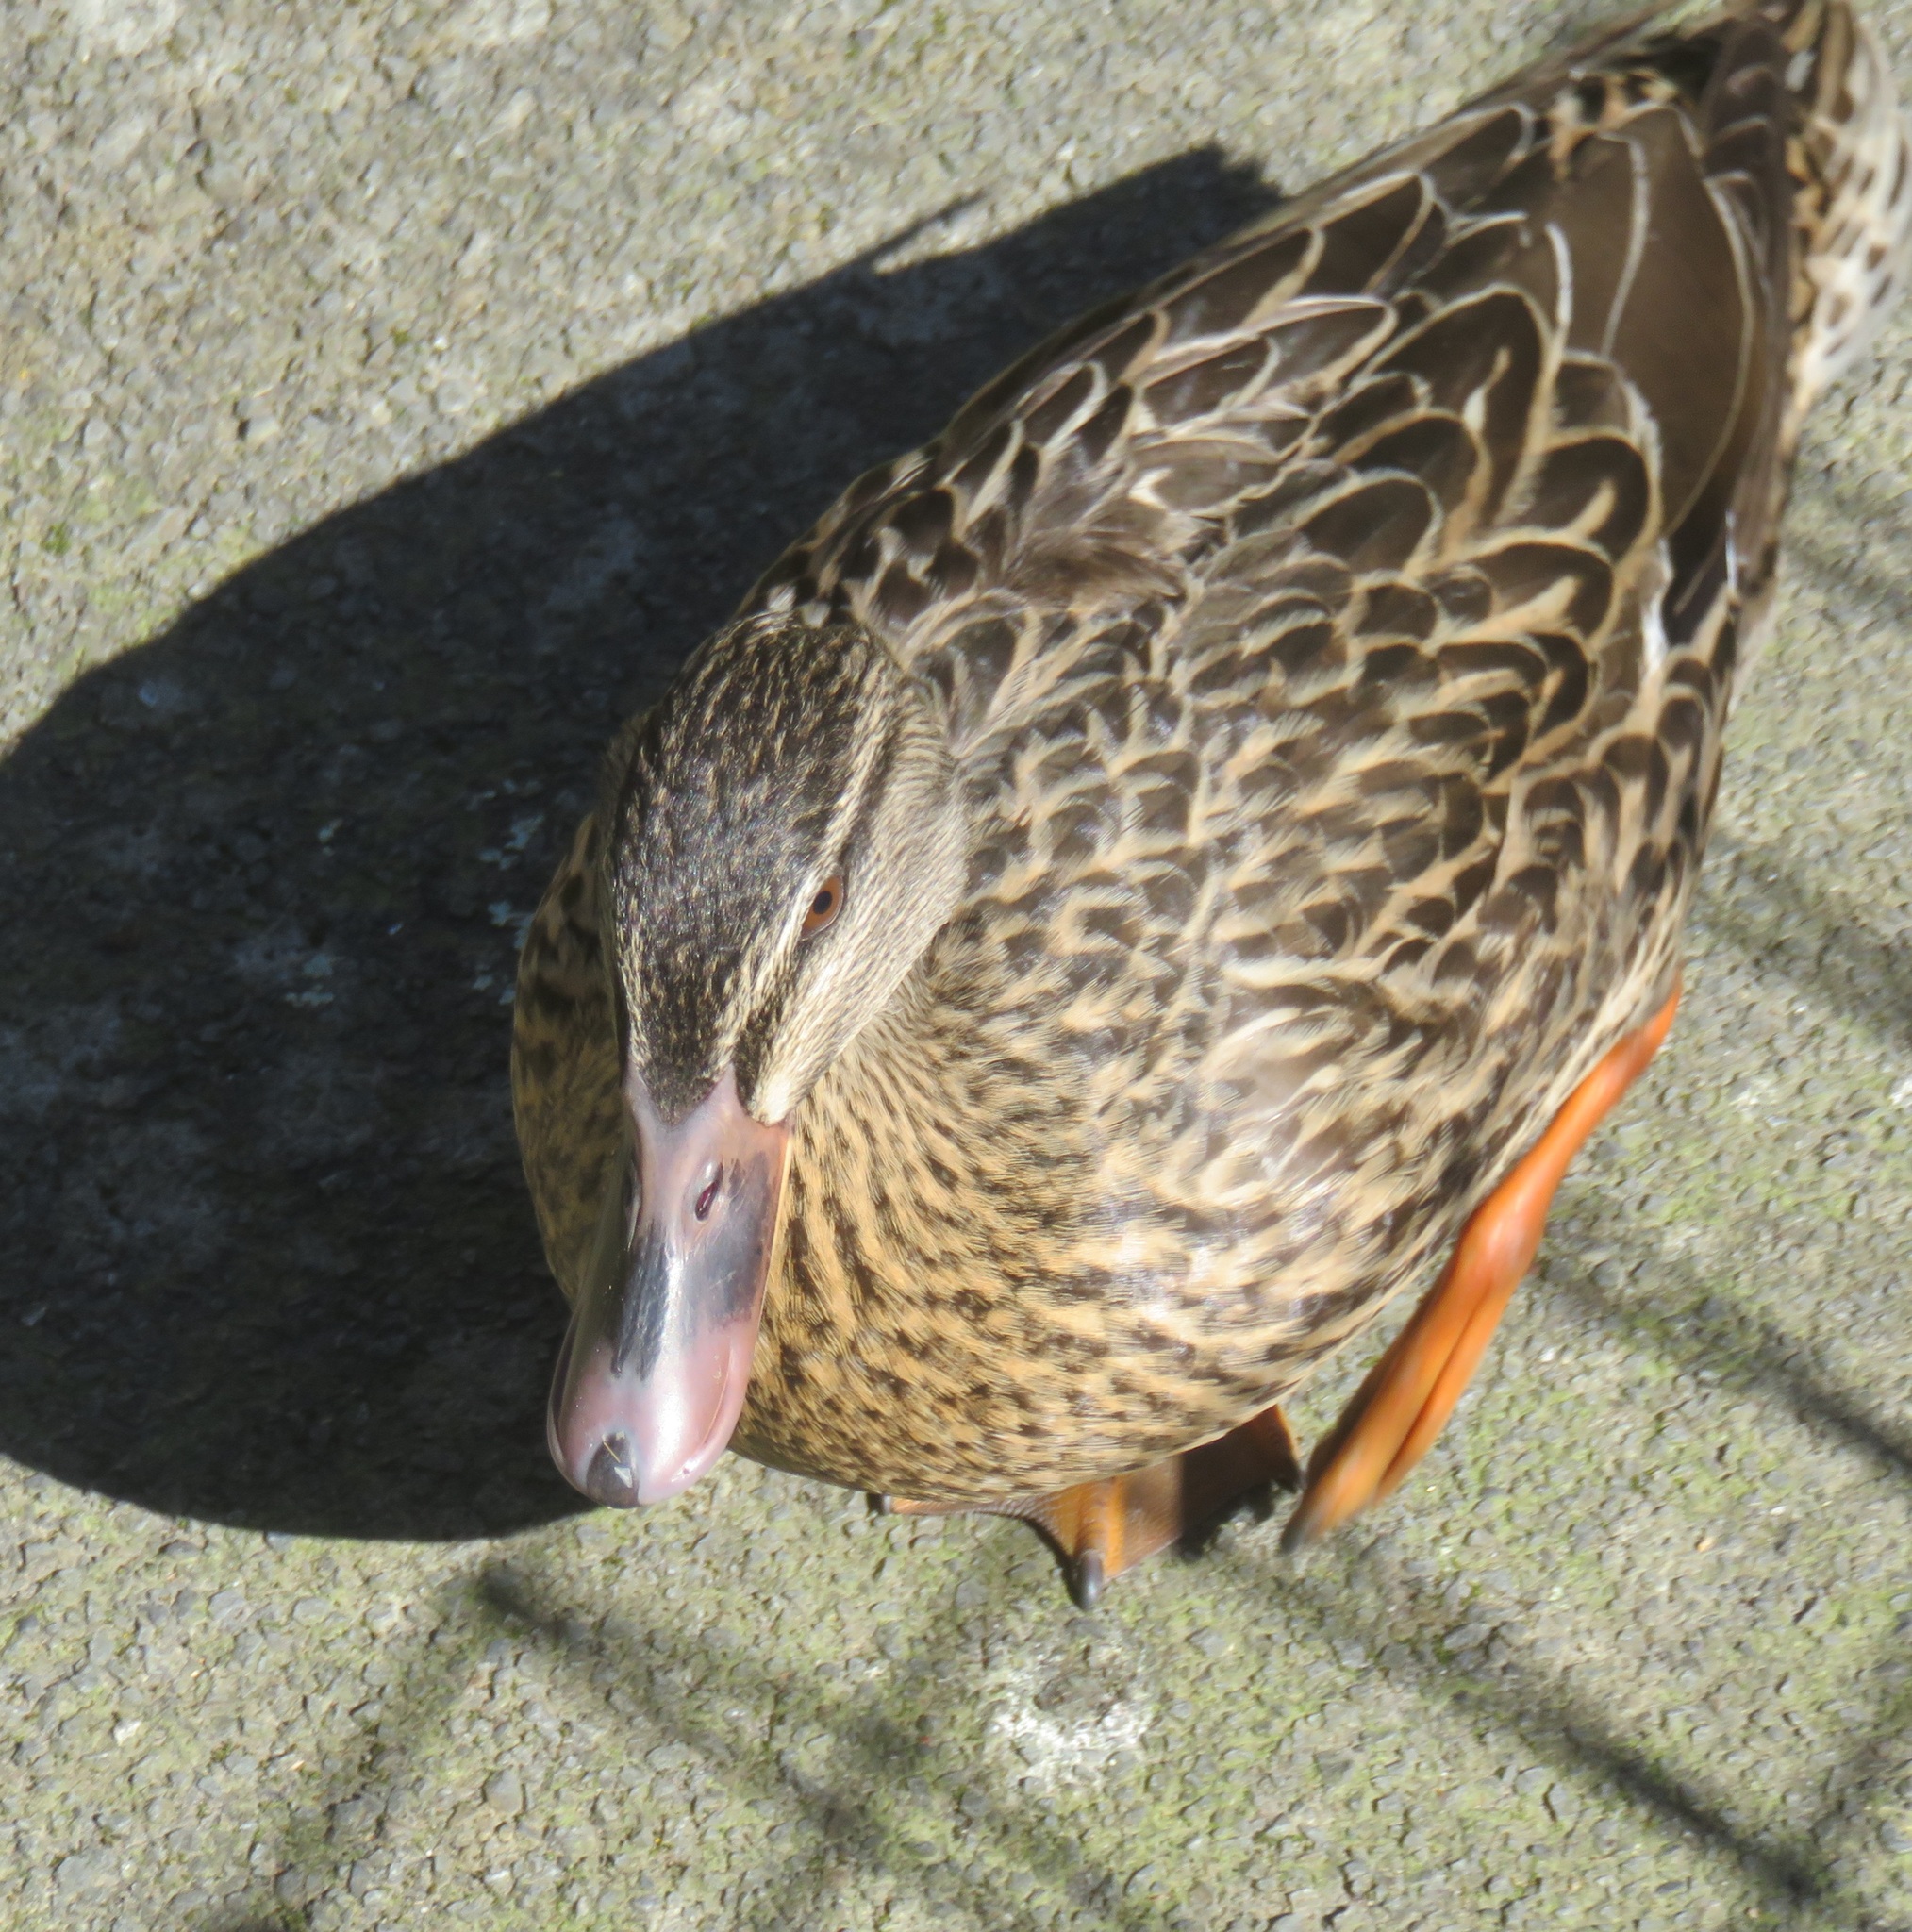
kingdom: Animalia
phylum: Chordata
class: Aves
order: Anseriformes
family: Anatidae
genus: Anas
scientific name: Anas
